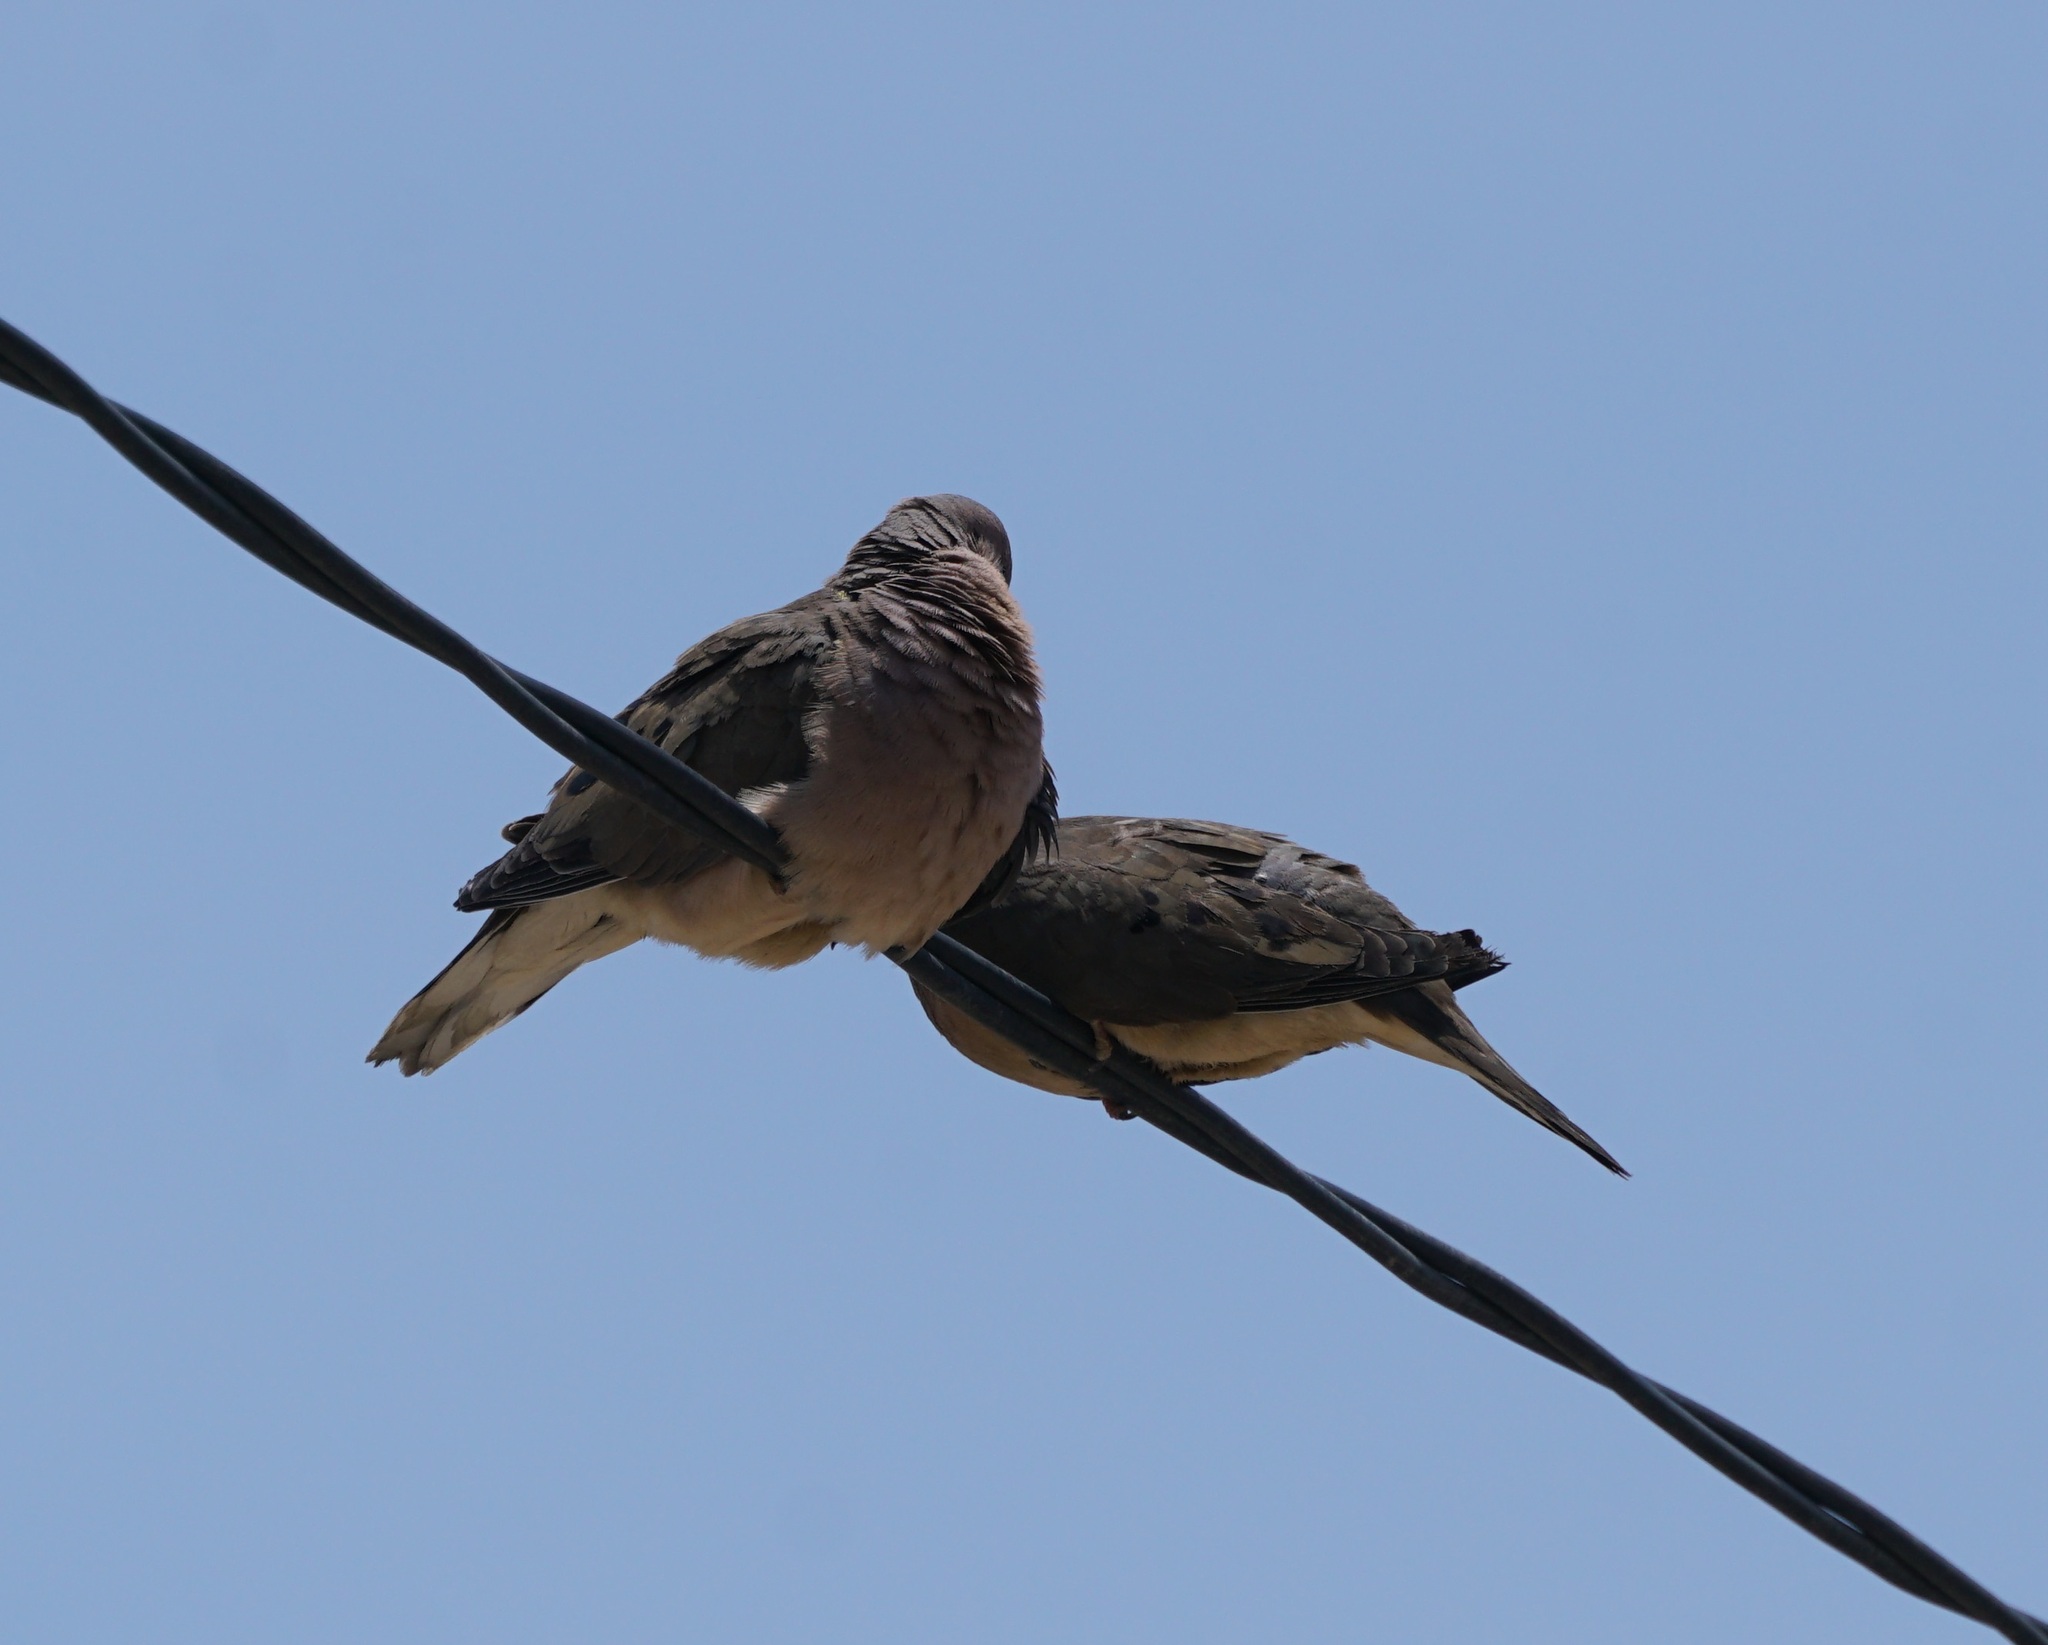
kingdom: Animalia
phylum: Chordata
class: Aves
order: Columbiformes
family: Columbidae
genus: Zenaida
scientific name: Zenaida auriculata
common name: Eared dove
